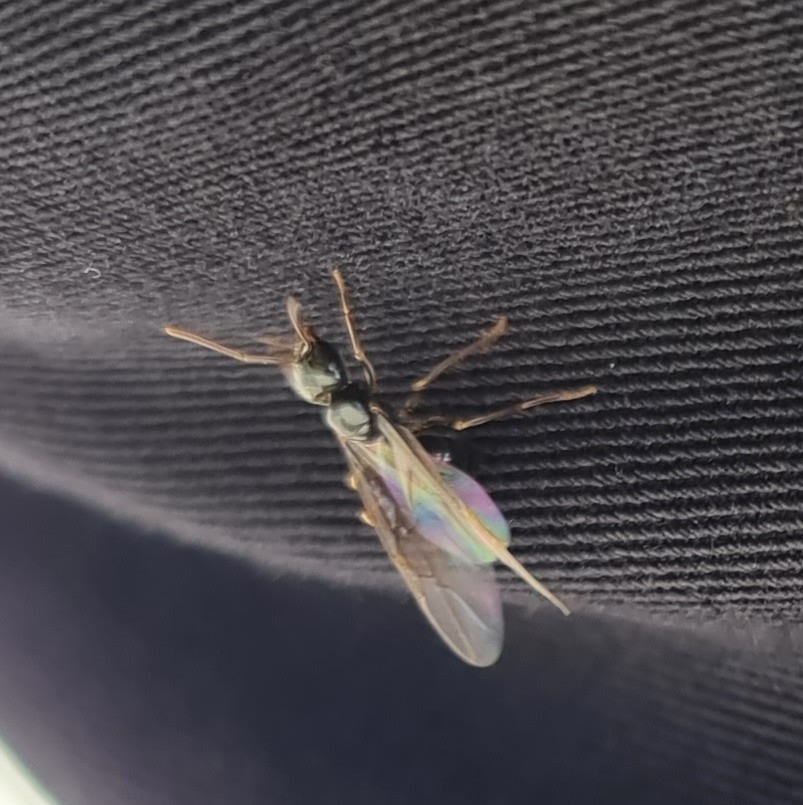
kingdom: Animalia
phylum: Arthropoda
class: Insecta
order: Hymenoptera
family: Formicidae
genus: Lasius
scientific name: Lasius fuliginosus
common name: Jet ant
